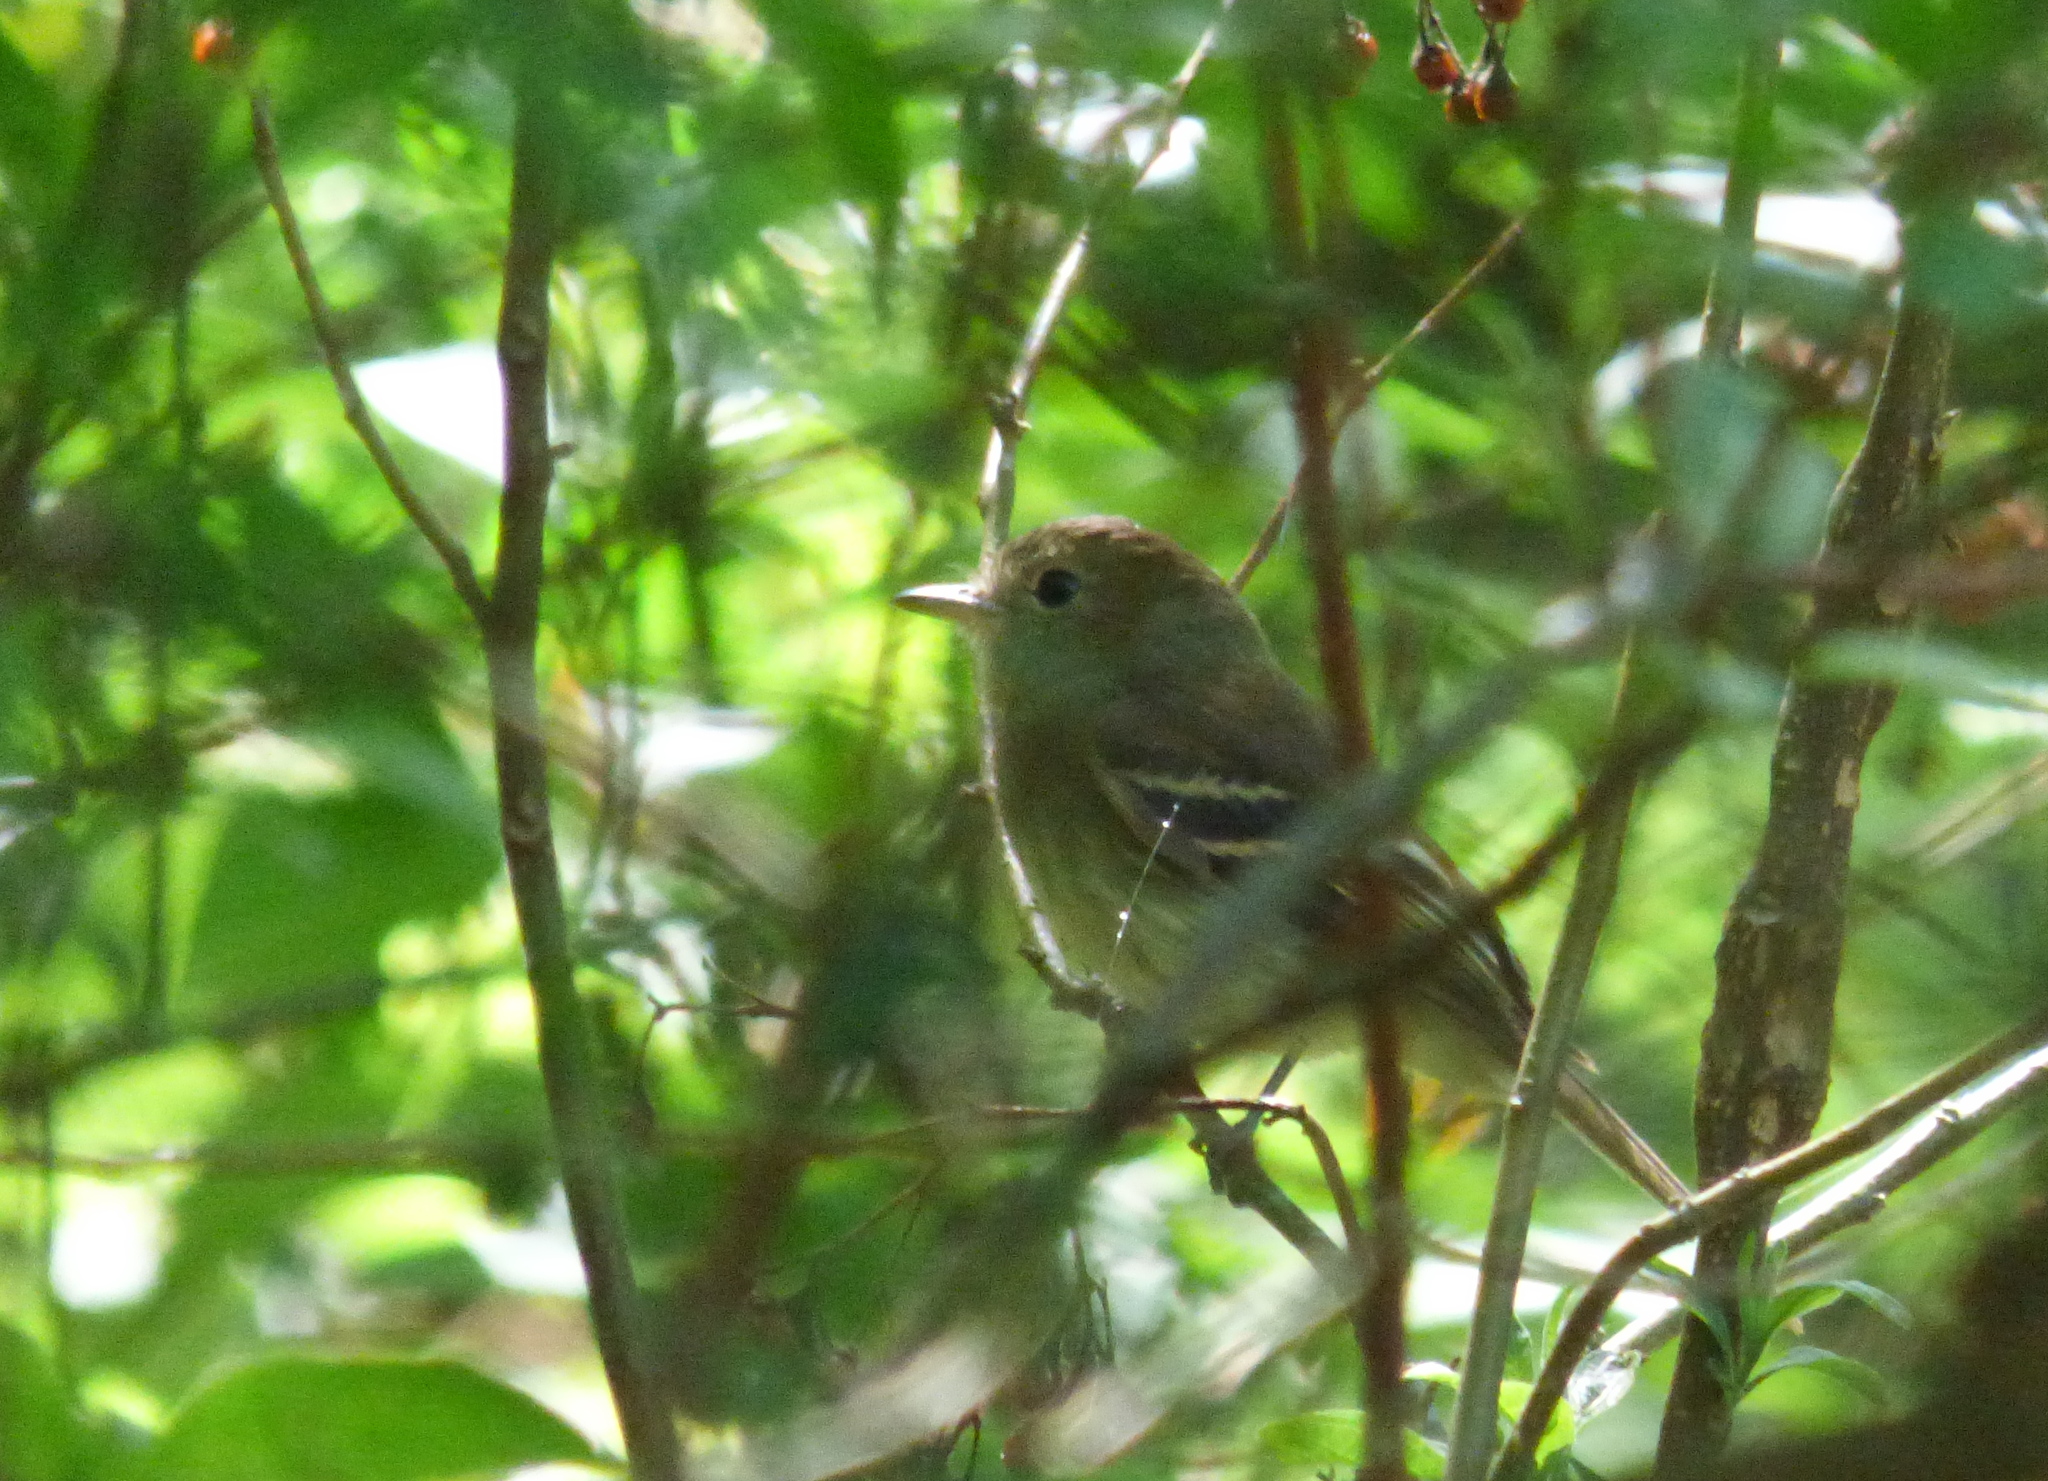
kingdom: Animalia
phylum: Chordata
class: Aves
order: Passeriformes
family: Tyrannidae
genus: Lathrotriccus
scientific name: Lathrotriccus euleri
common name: Euler's flycatcher
